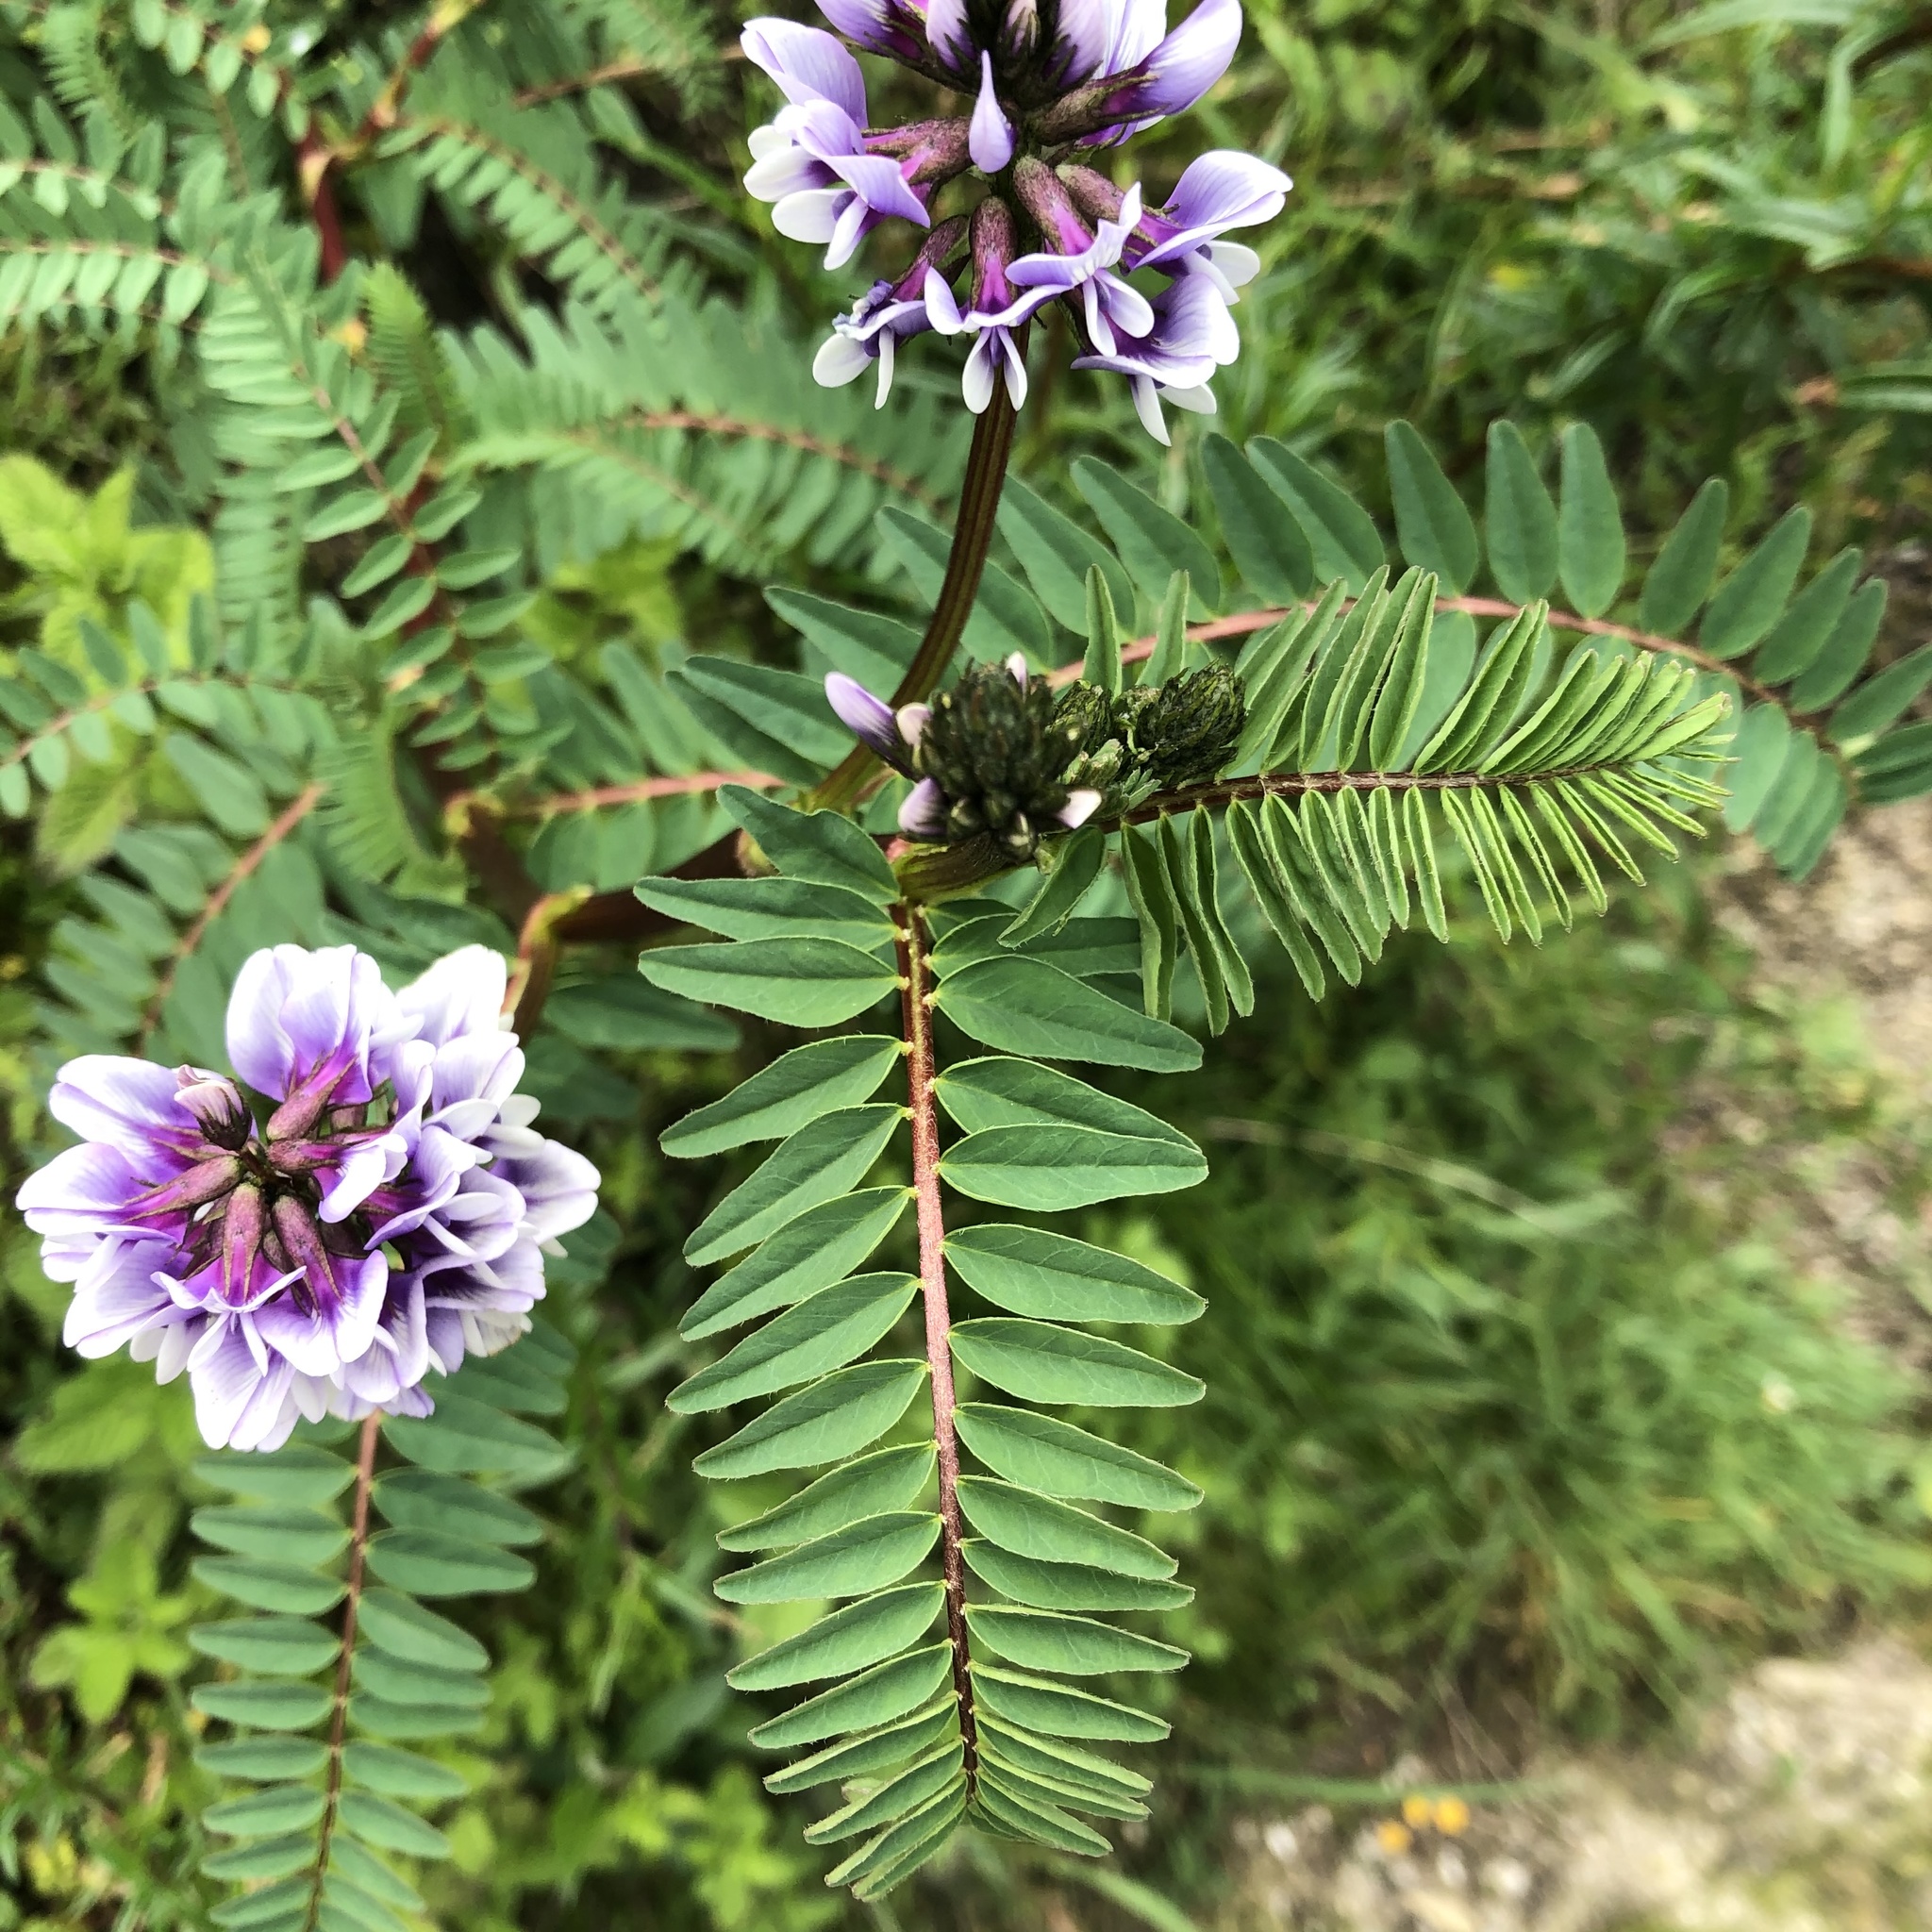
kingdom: Plantae
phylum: Tracheophyta
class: Magnoliopsida
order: Fabales
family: Fabaceae
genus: Astragalus
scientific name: Astragalus garbancillo
